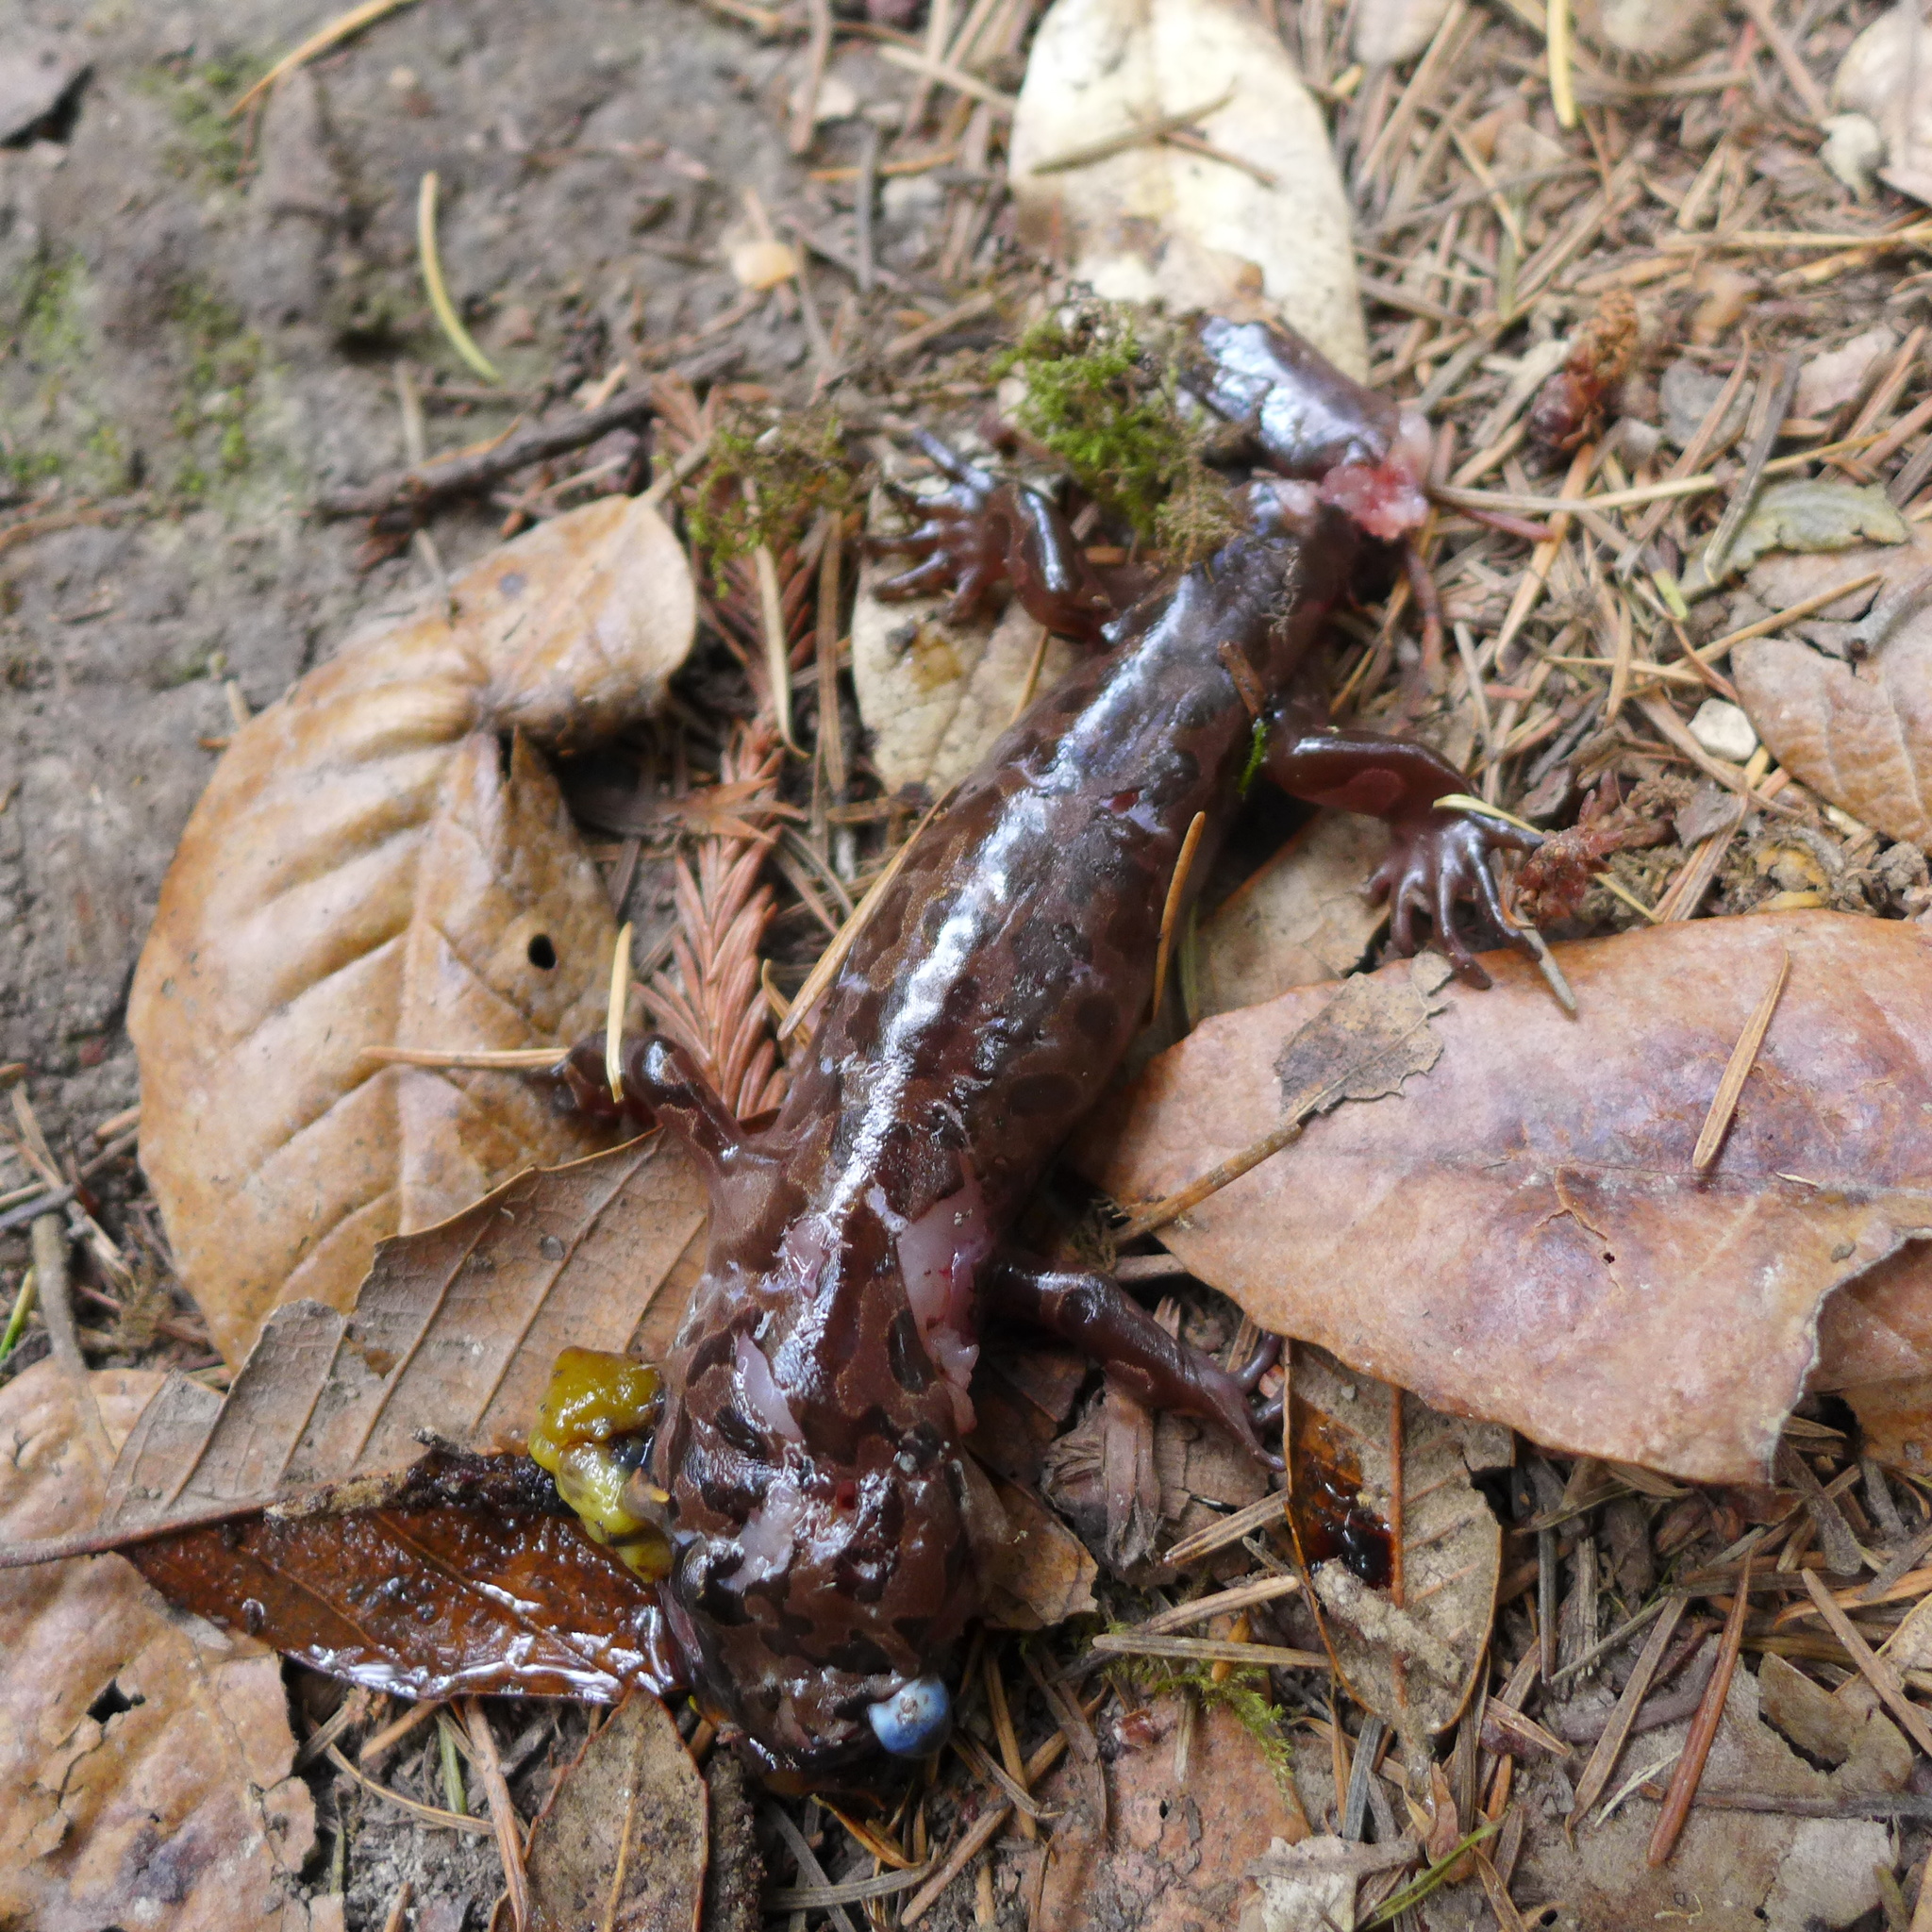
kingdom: Animalia
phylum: Chordata
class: Amphibia
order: Caudata
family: Ambystomatidae
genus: Dicamptodon
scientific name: Dicamptodon ensatus
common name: California giant salamander
